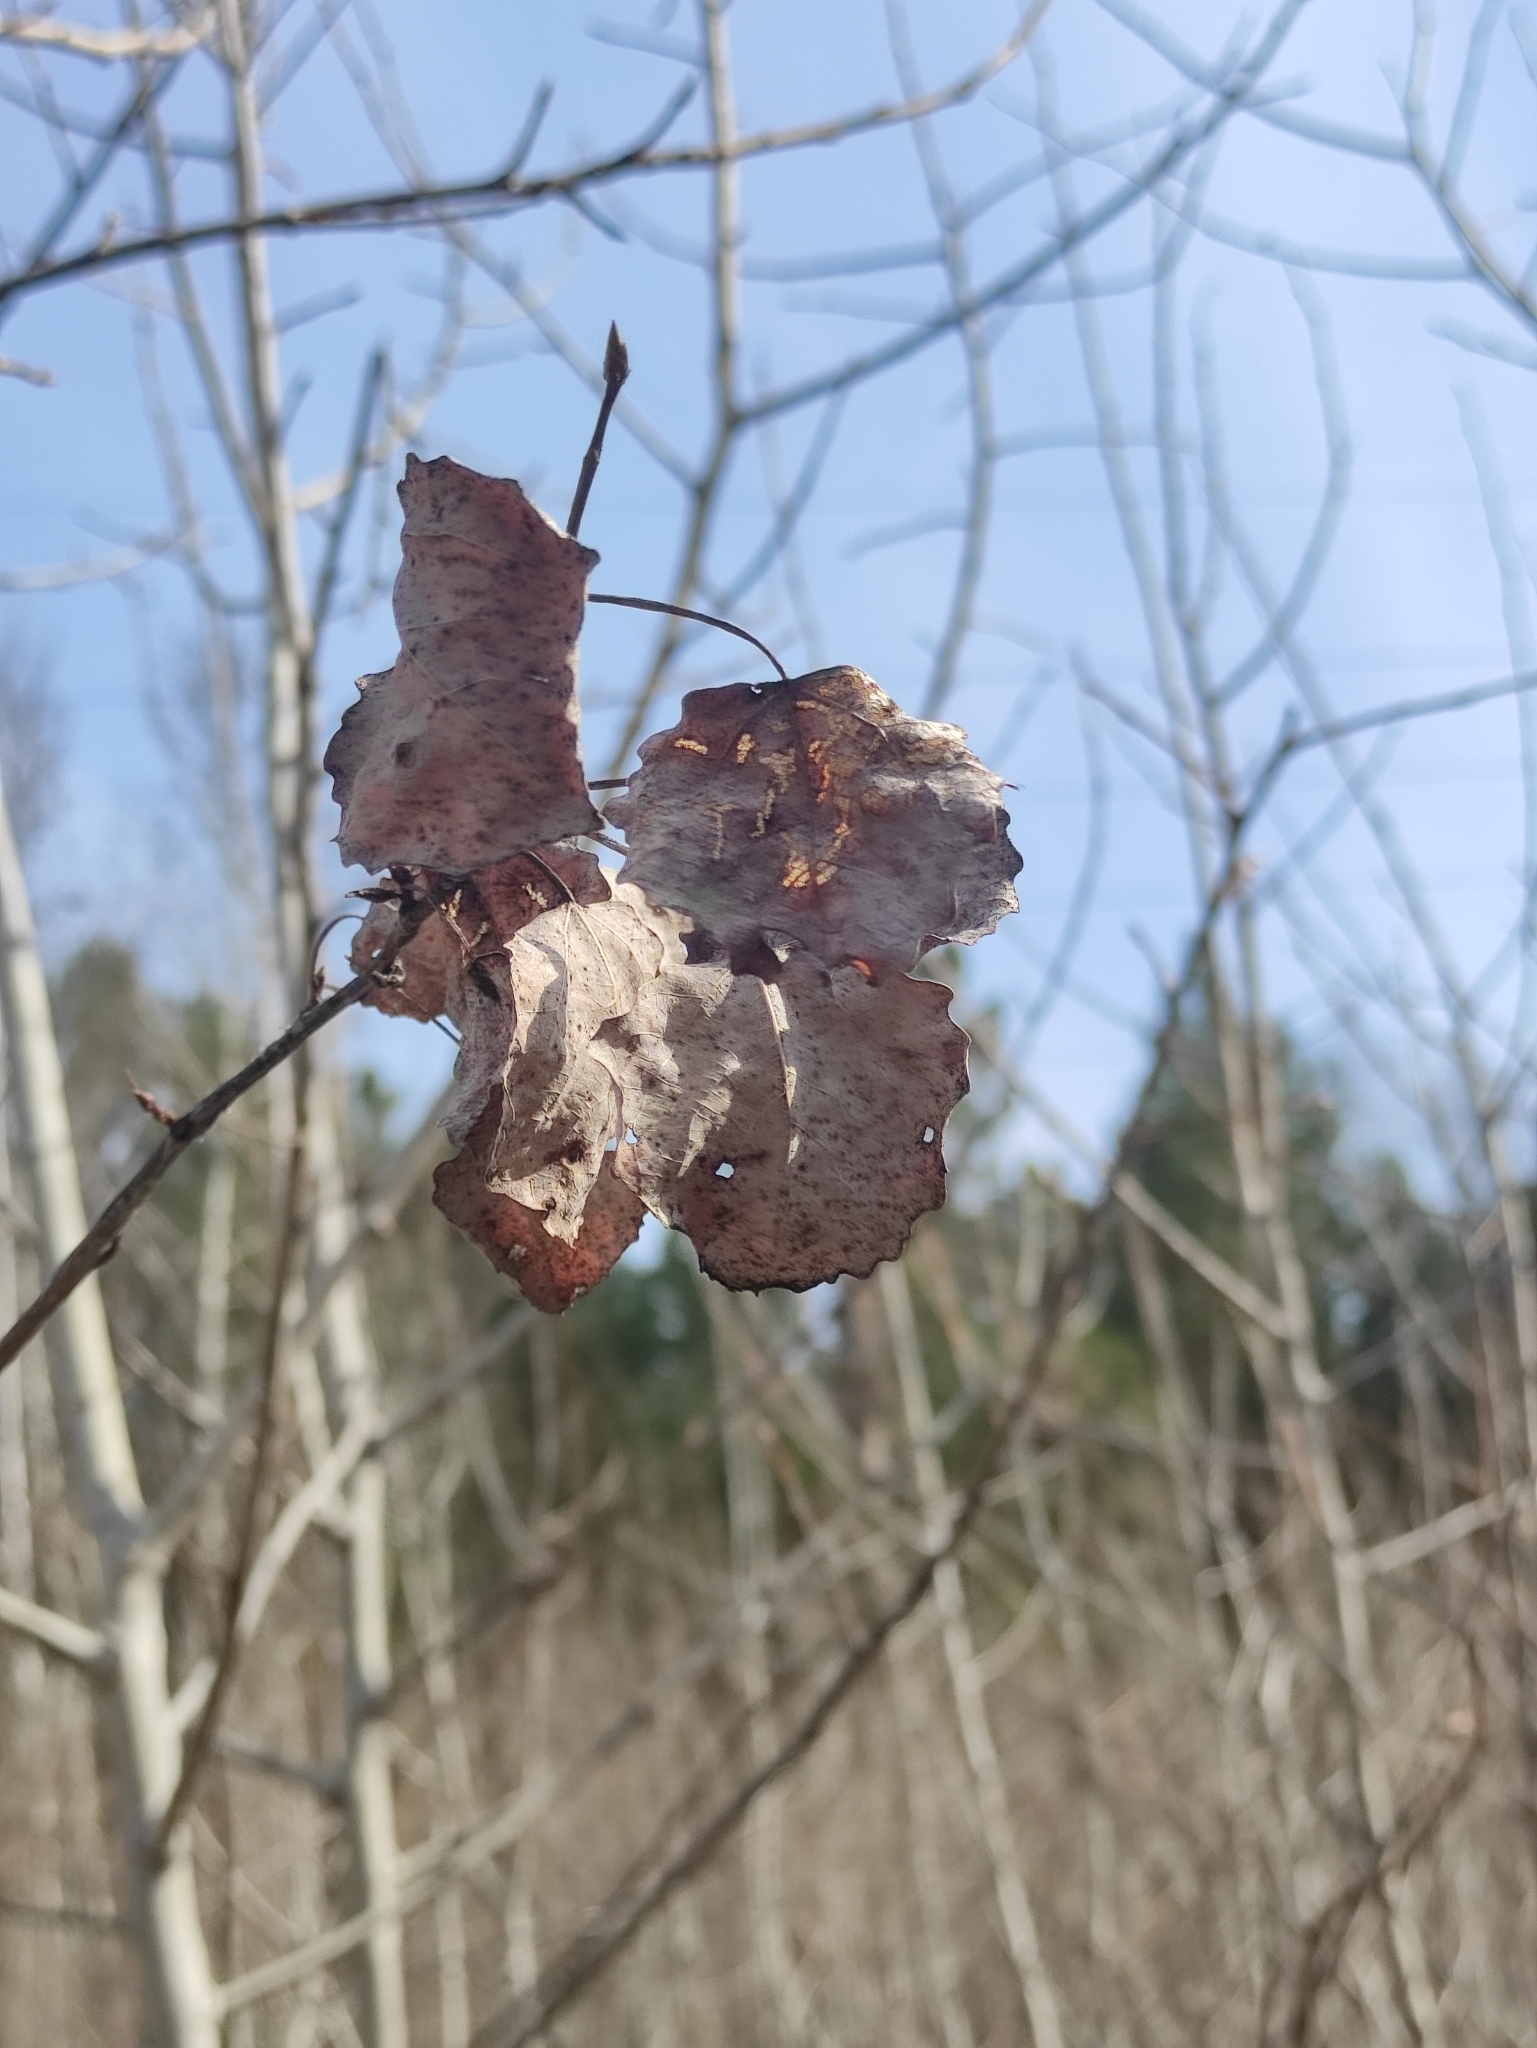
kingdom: Plantae
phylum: Tracheophyta
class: Magnoliopsida
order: Malpighiales
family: Salicaceae
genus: Populus
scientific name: Populus tremula
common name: European aspen
